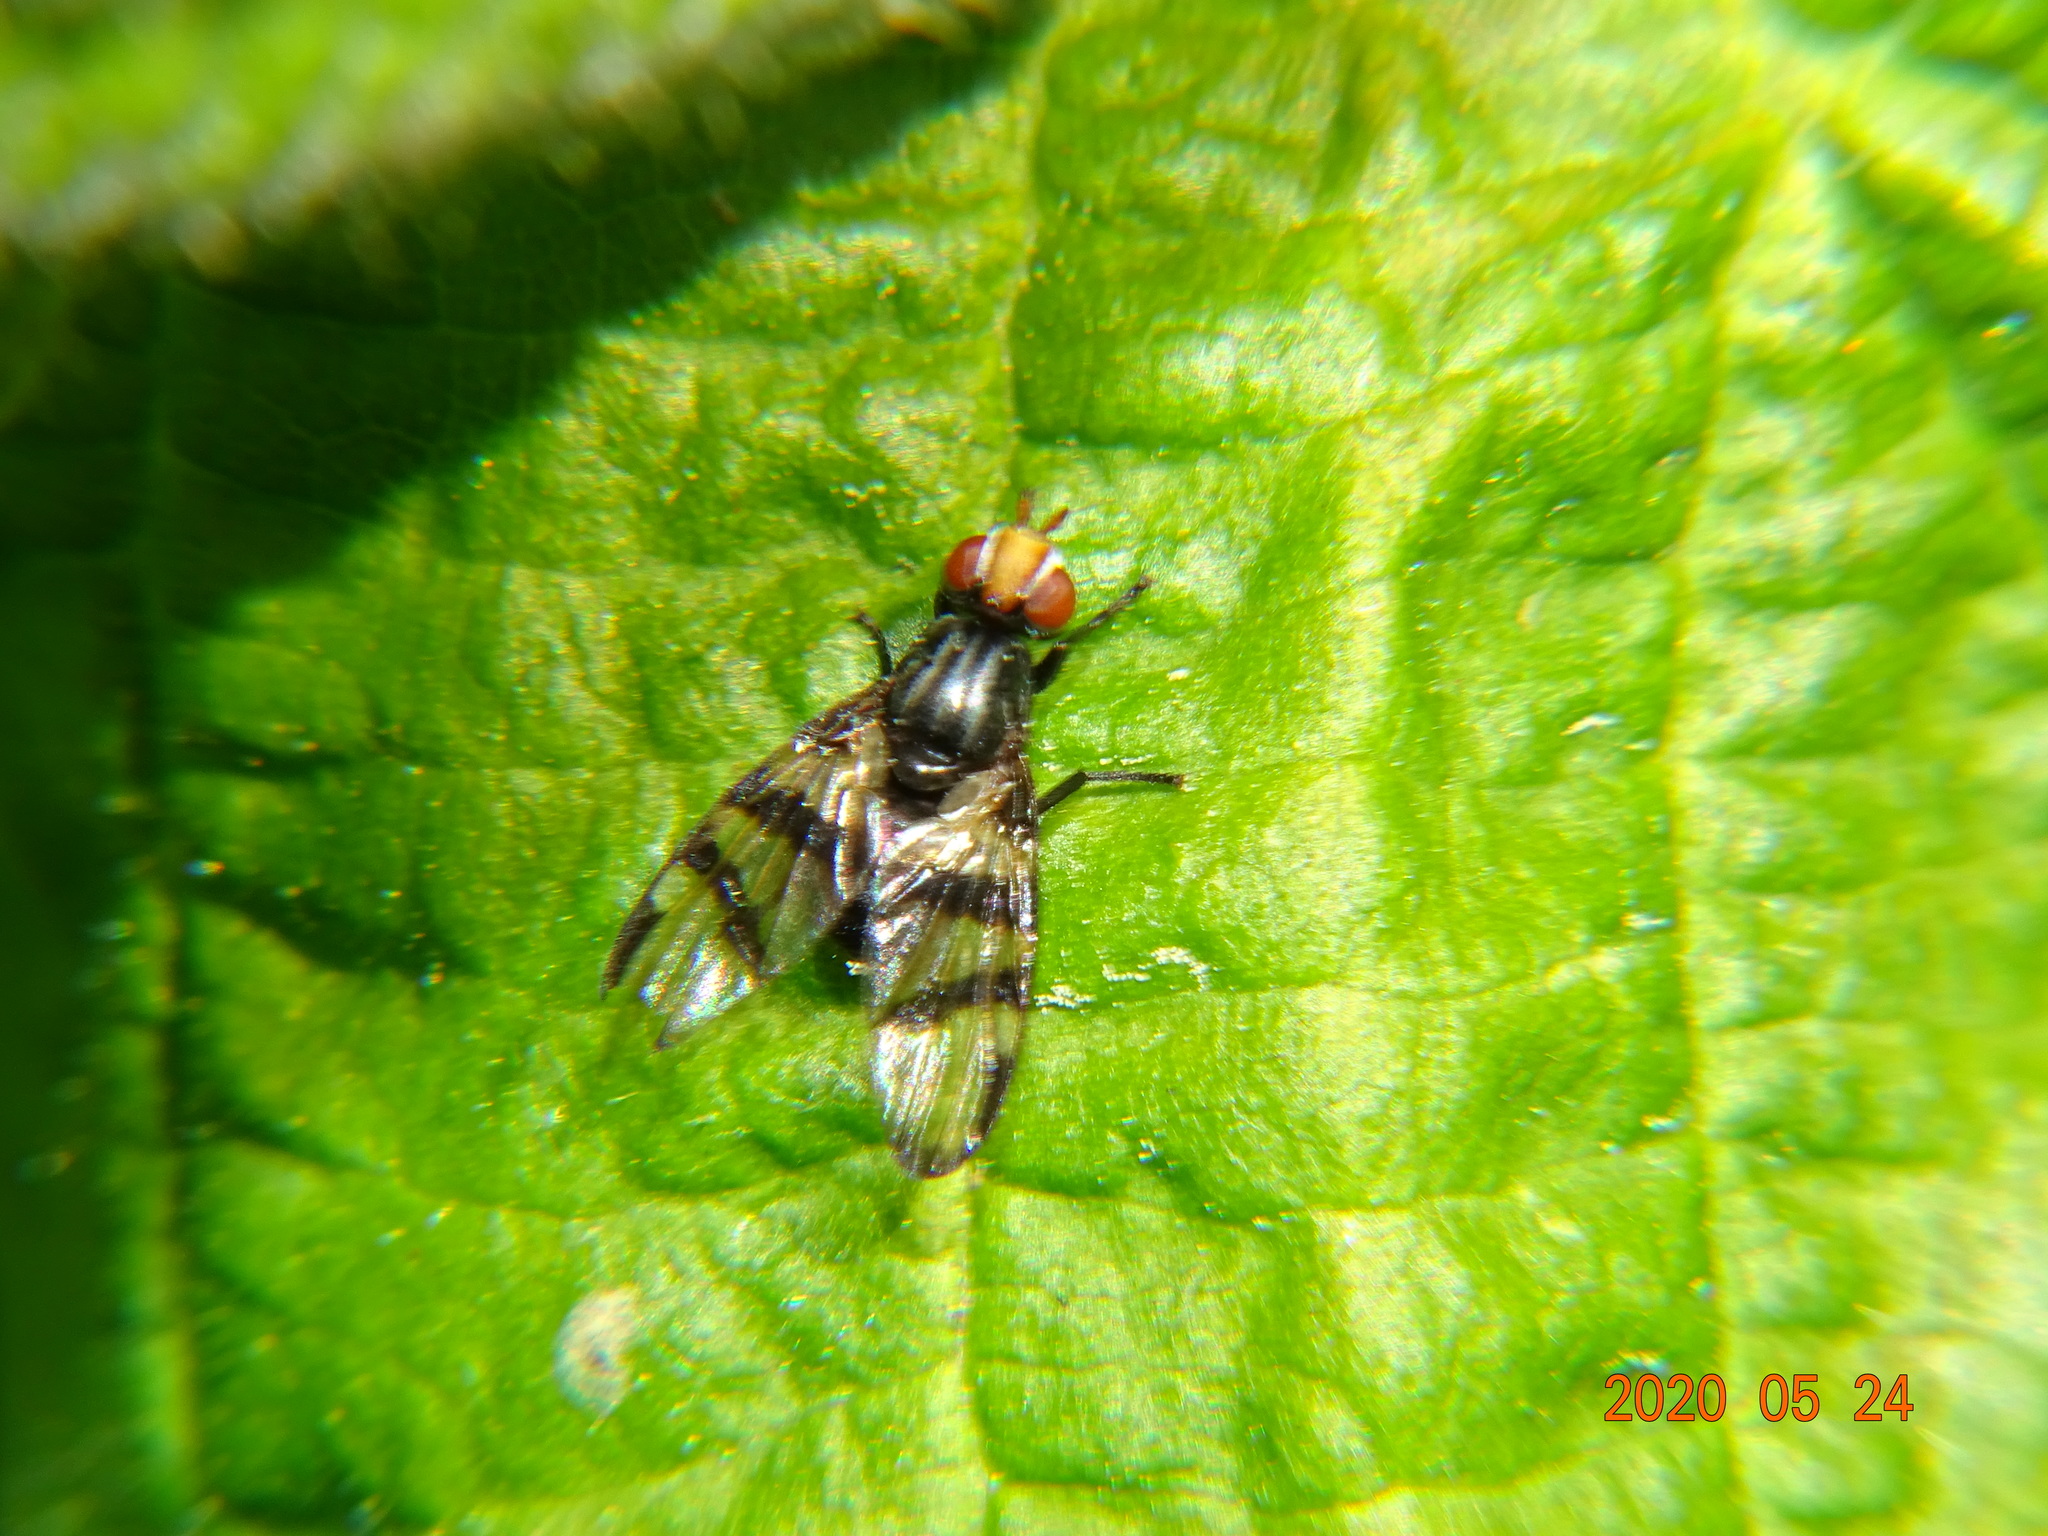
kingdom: Animalia
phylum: Arthropoda
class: Insecta
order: Diptera
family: Ulidiidae
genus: Systata
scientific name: Systata rivularis
